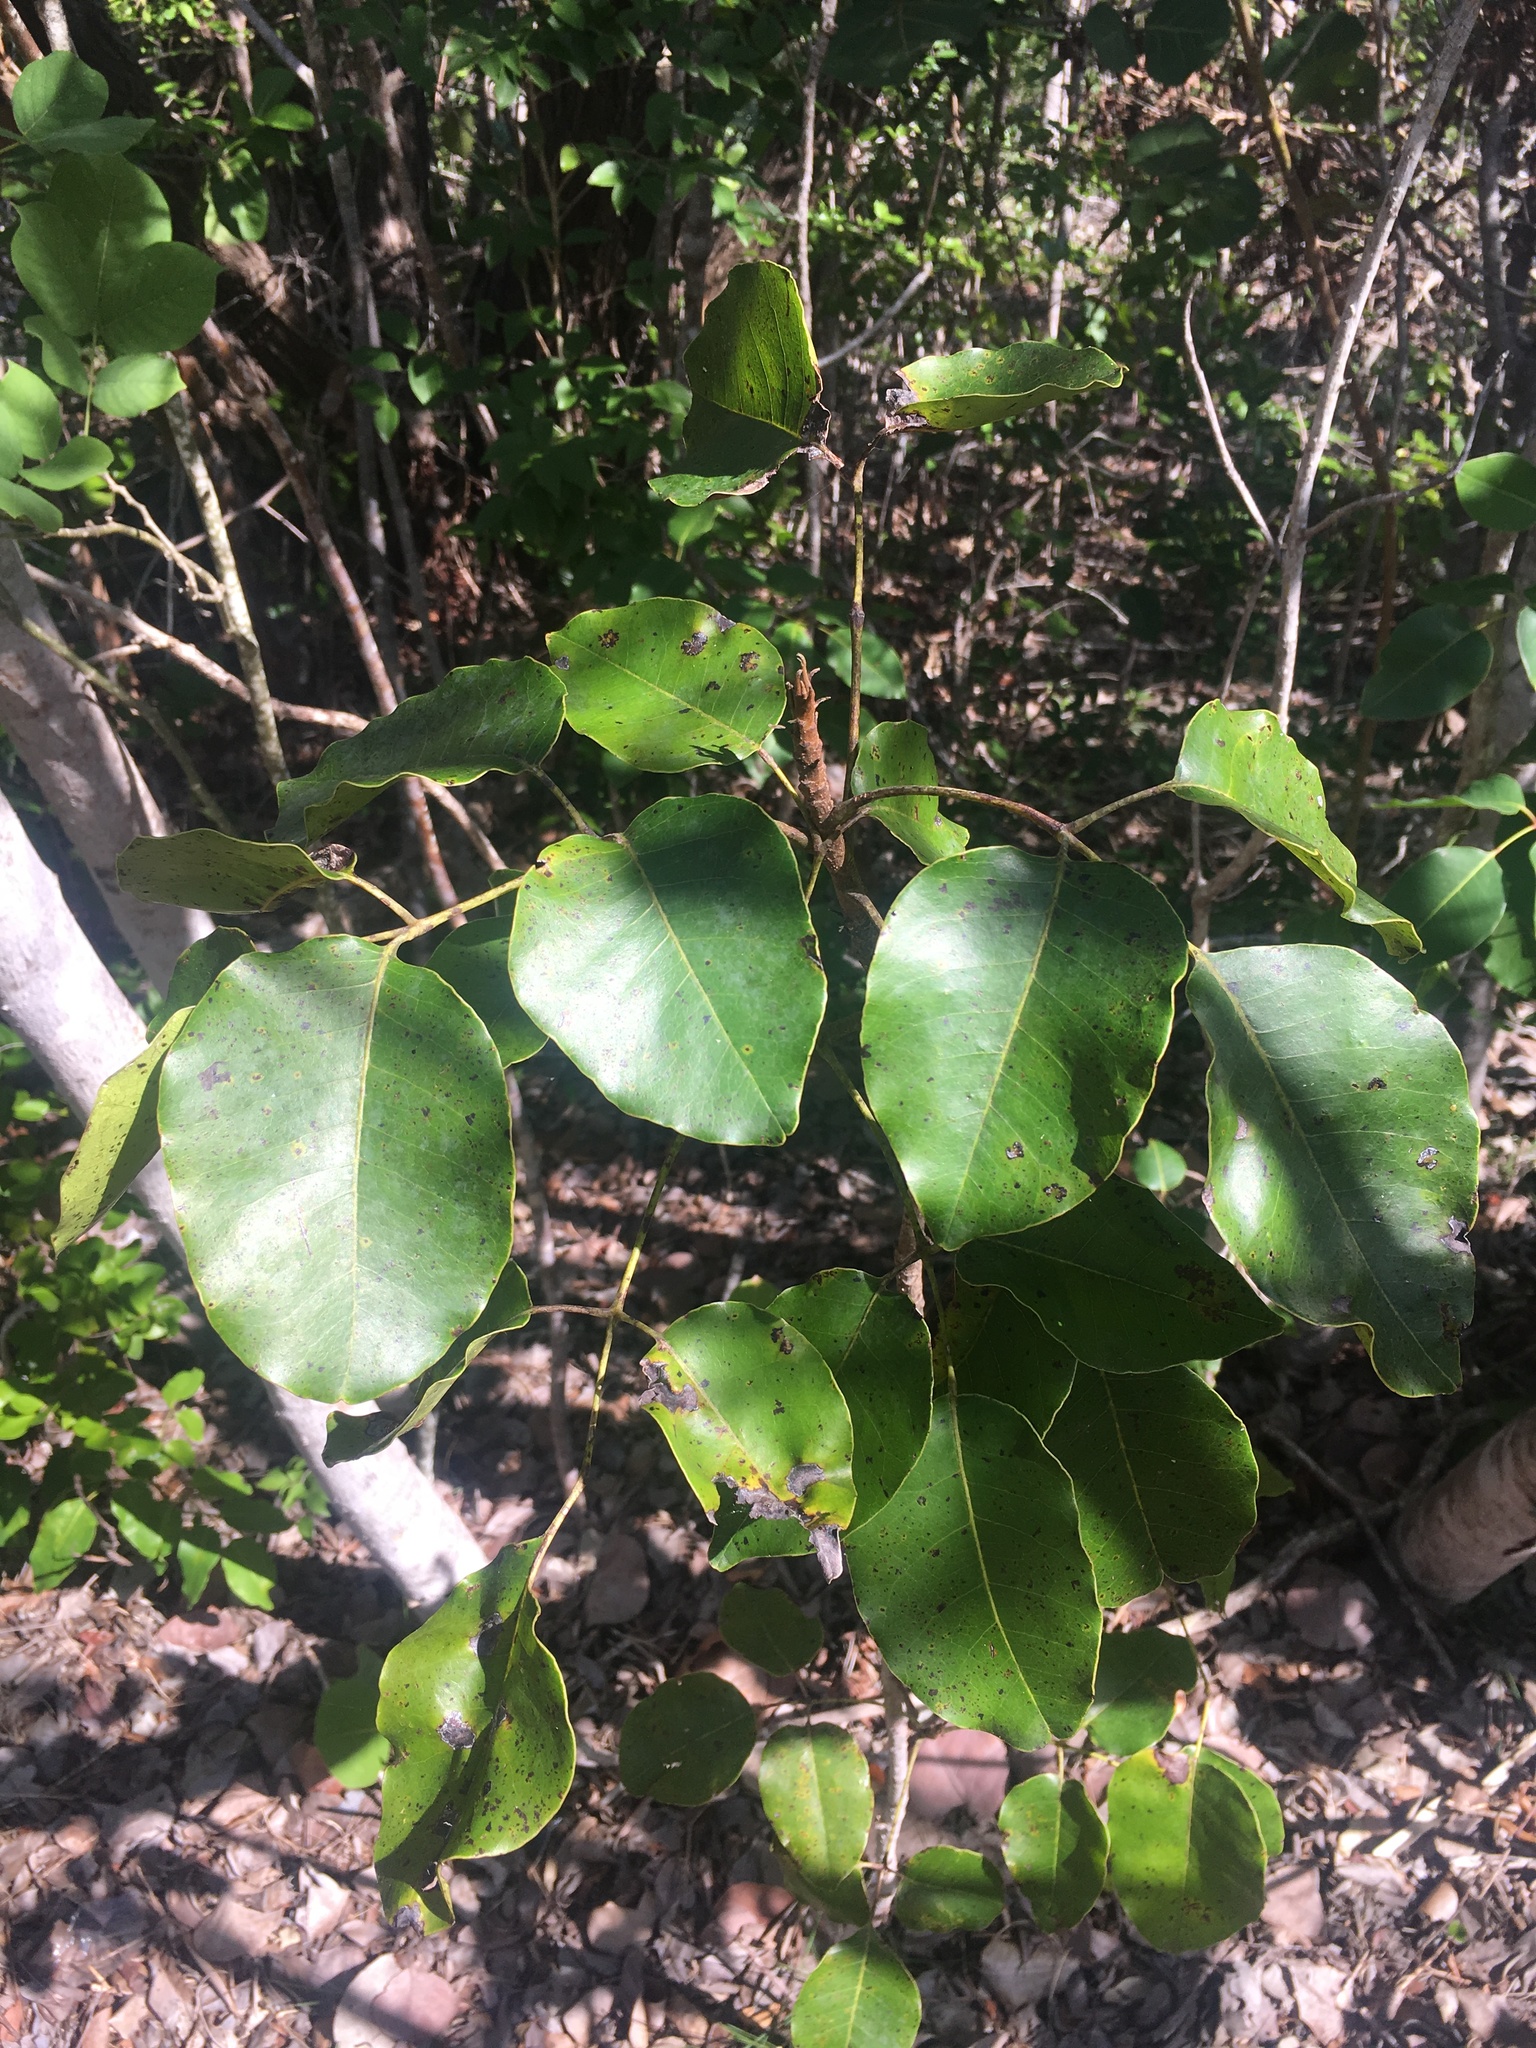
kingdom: Plantae
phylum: Tracheophyta
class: Magnoliopsida
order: Sapindales
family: Anacardiaceae
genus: Metopium
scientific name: Metopium toxiferum
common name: Florida poisontree
